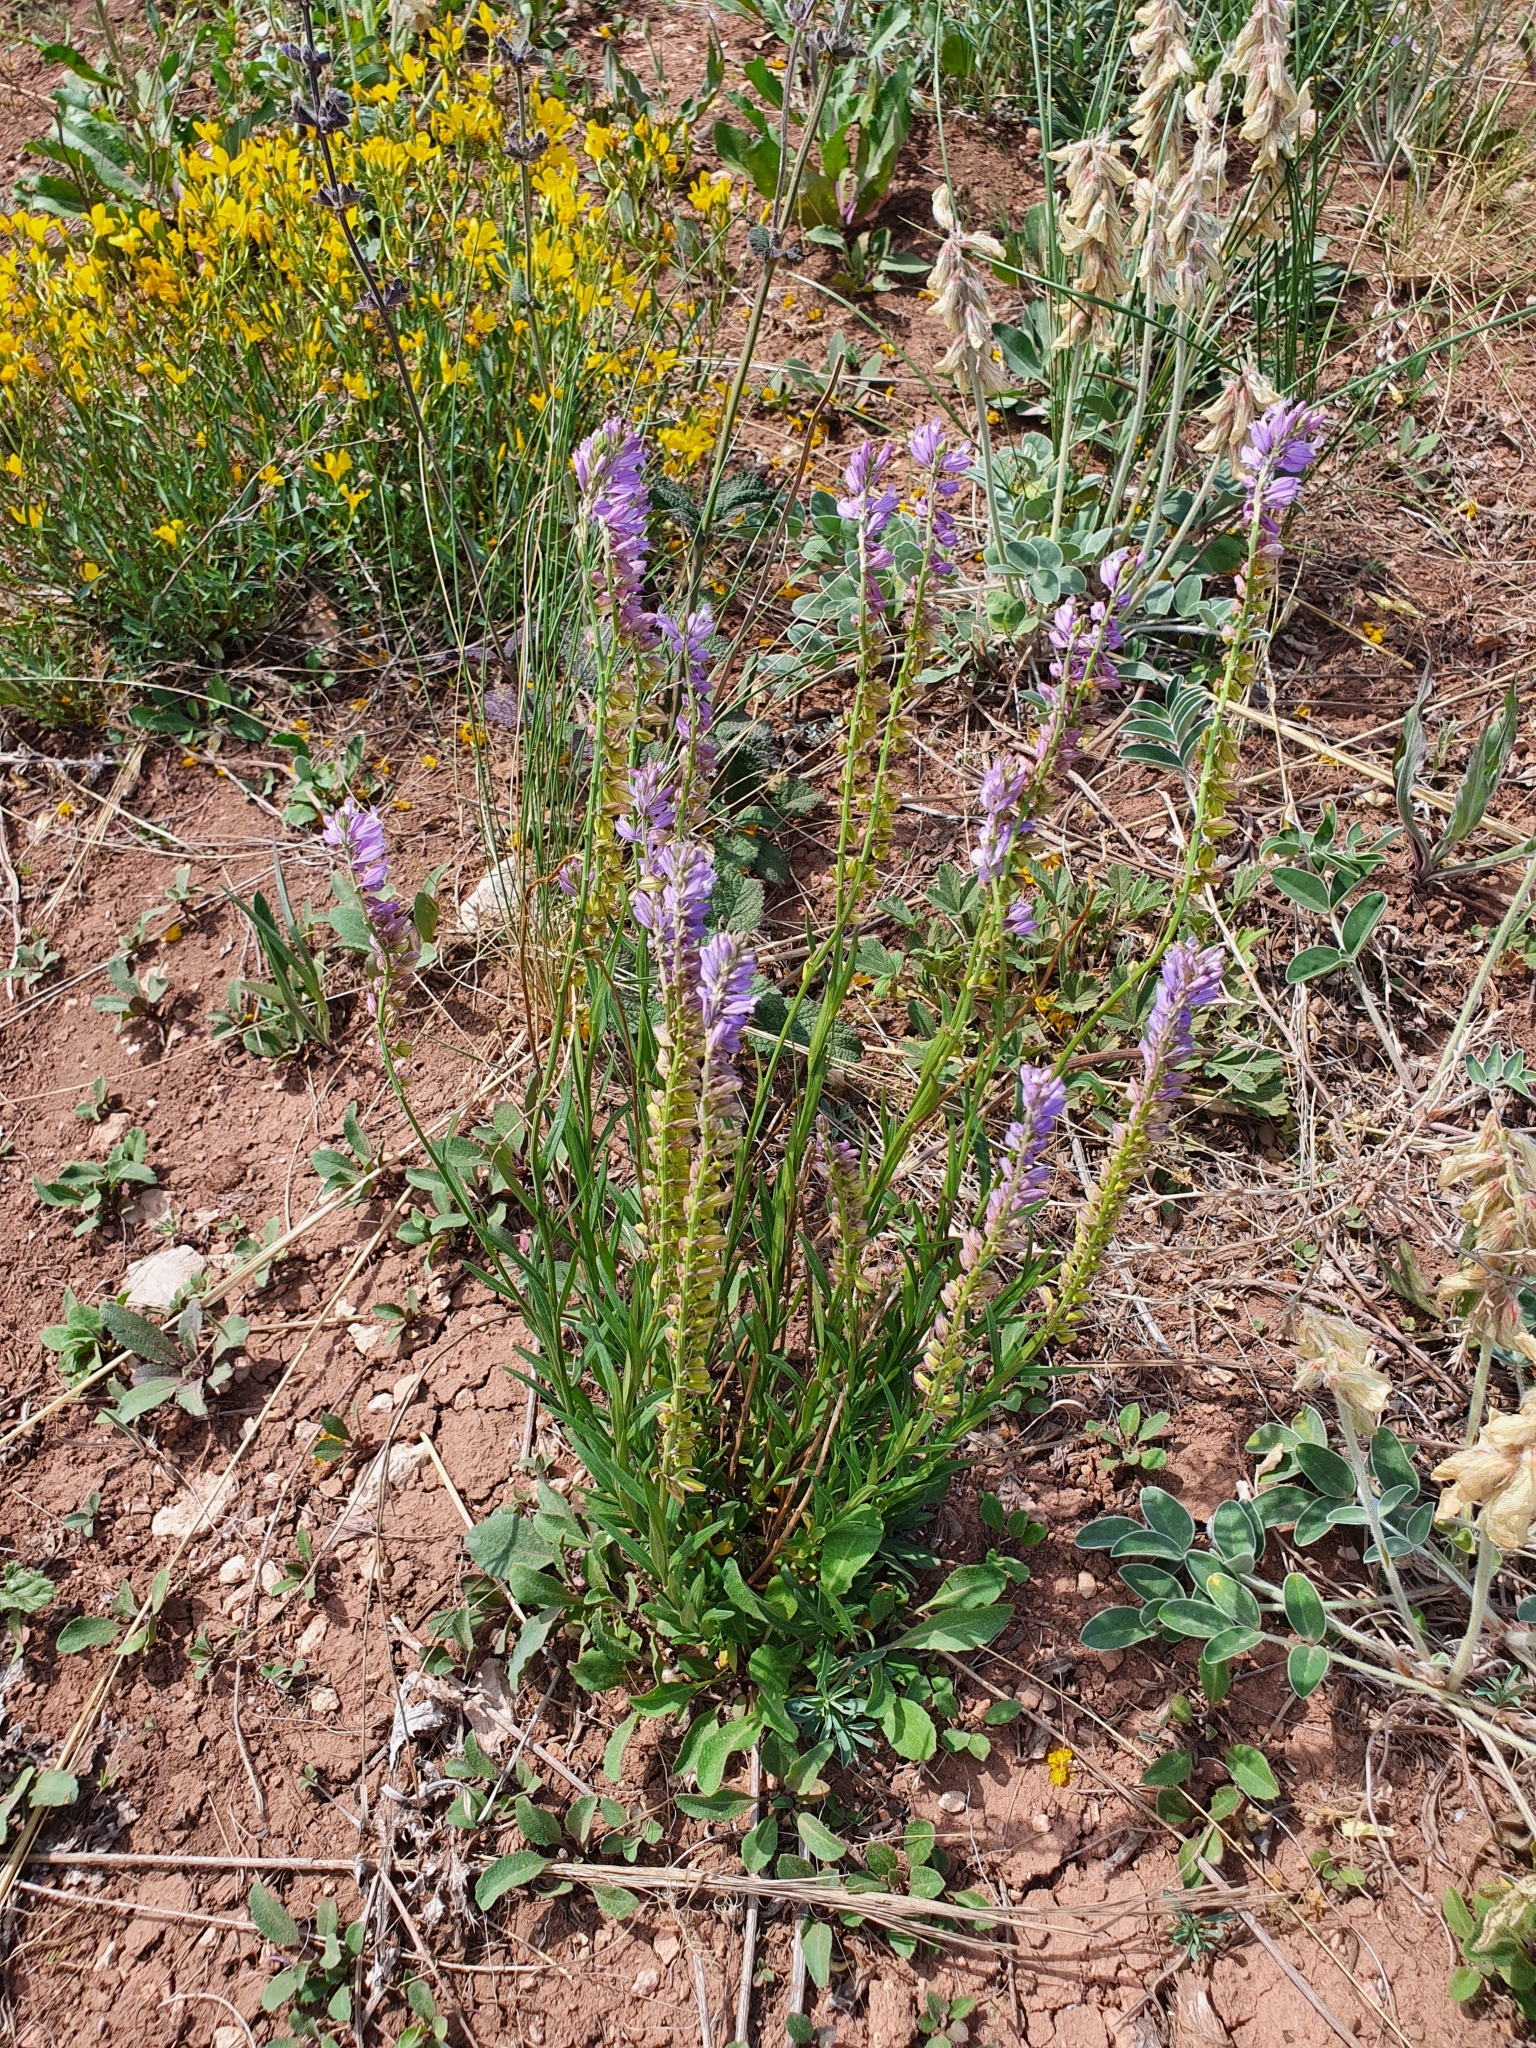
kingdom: Plantae
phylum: Tracheophyta
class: Magnoliopsida
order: Fabales
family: Polygalaceae
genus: Polygala
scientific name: Polygala nicaeensis
